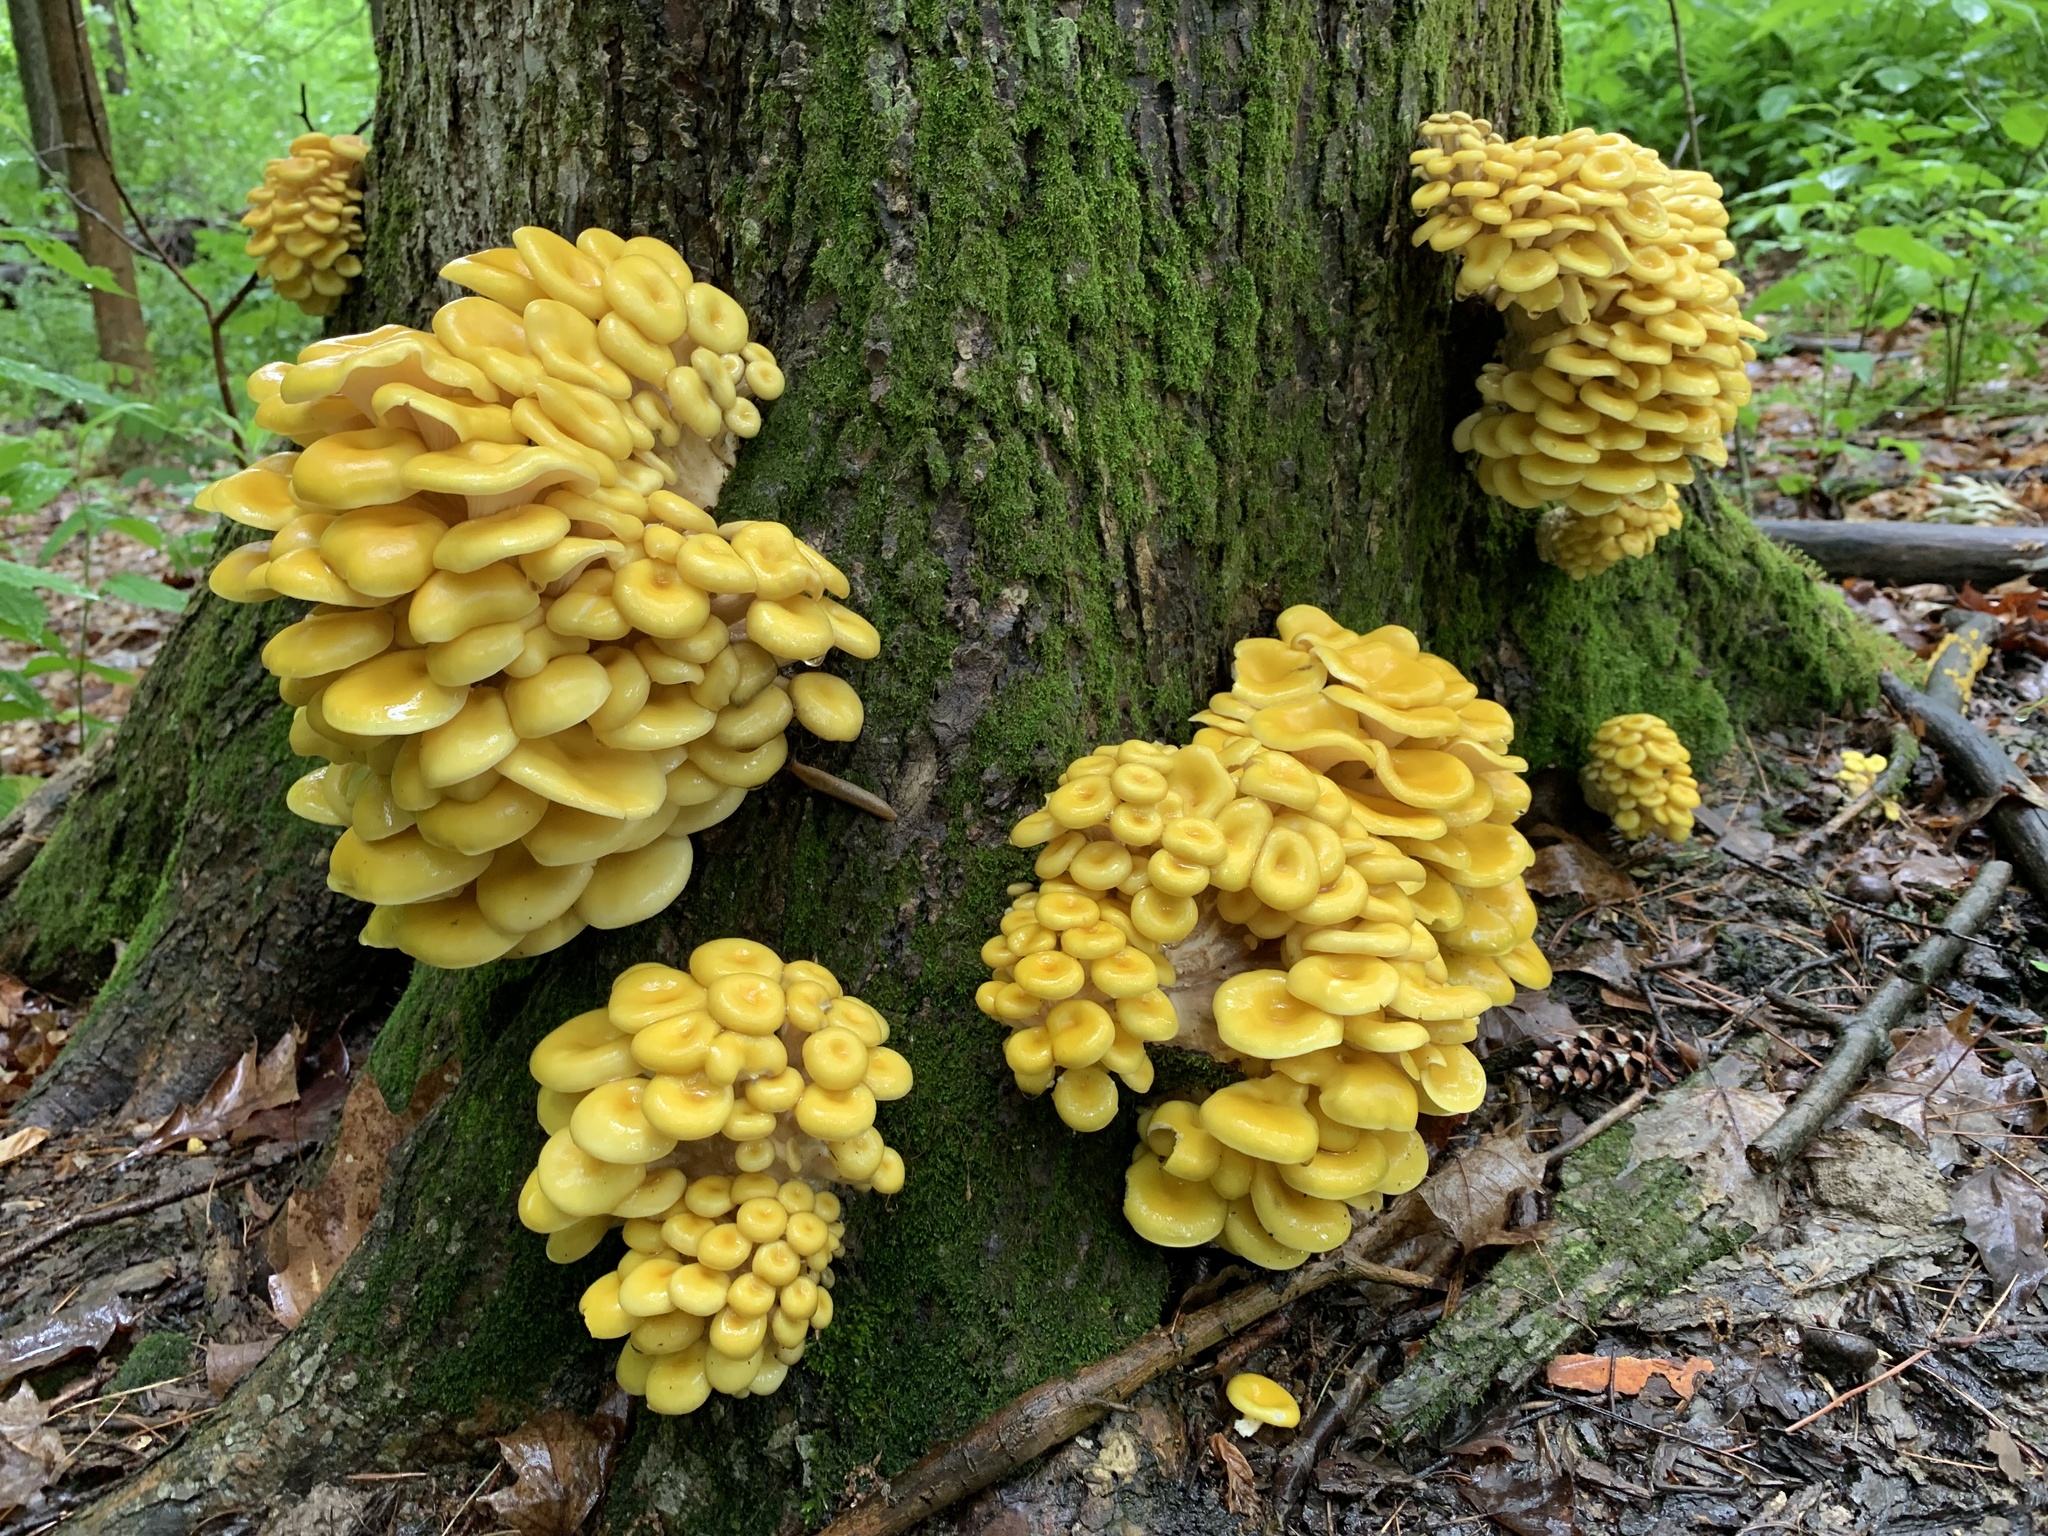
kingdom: Fungi
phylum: Basidiomycota
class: Agaricomycetes
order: Agaricales
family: Pleurotaceae
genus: Pleurotus
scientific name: Pleurotus citrinopileatus
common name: Golden oyster mushroom
